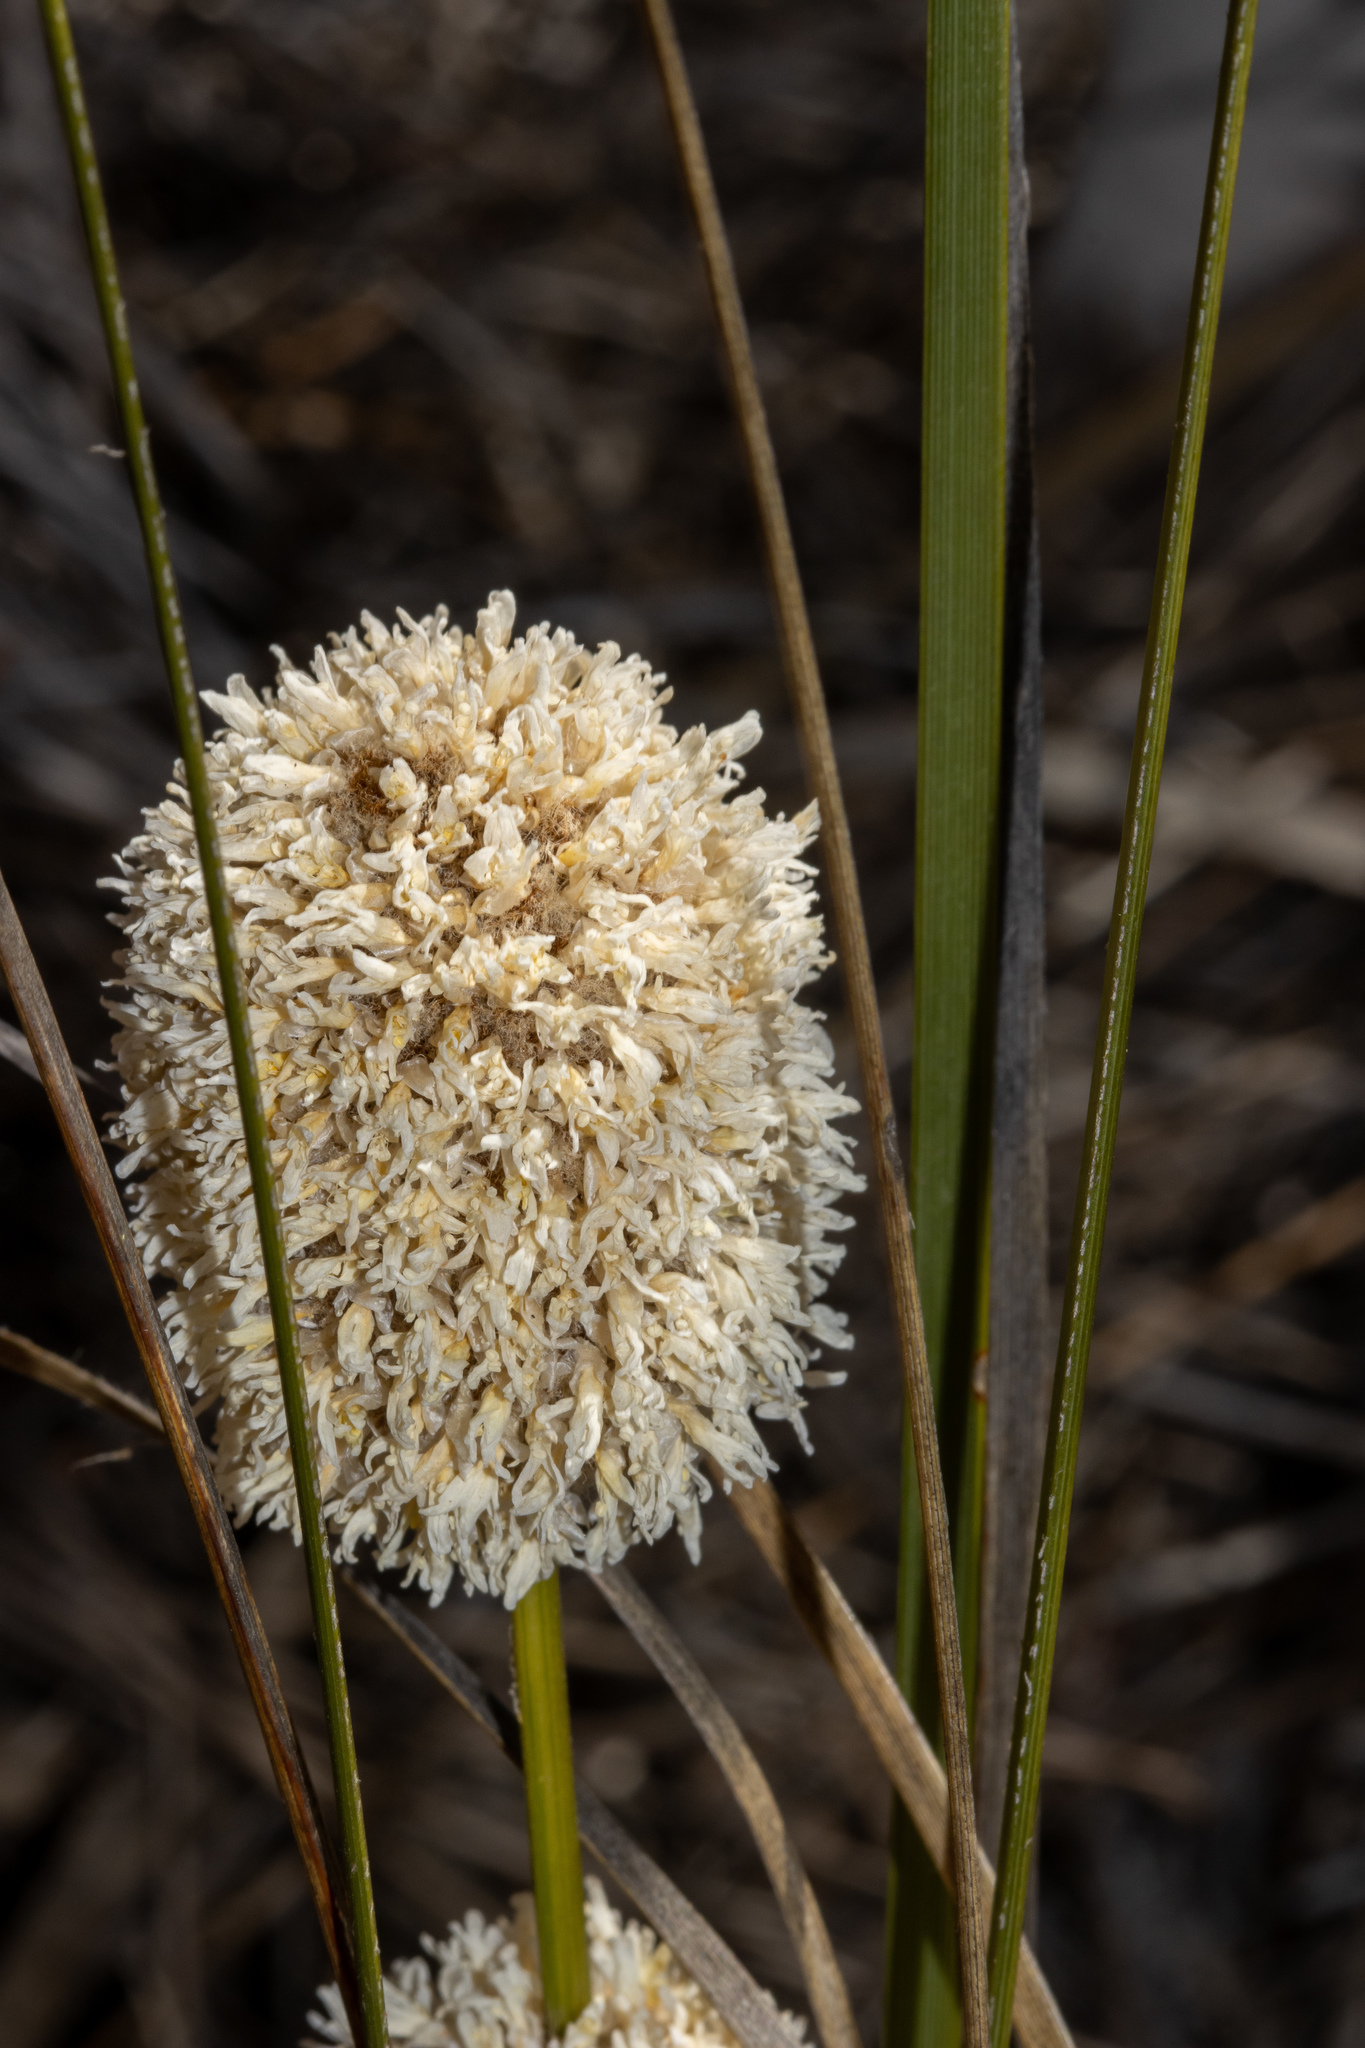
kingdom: Plantae
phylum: Tracheophyta
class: Liliopsida
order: Asparagales
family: Asparagaceae
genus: Lomandra
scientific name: Lomandra leucocephala
